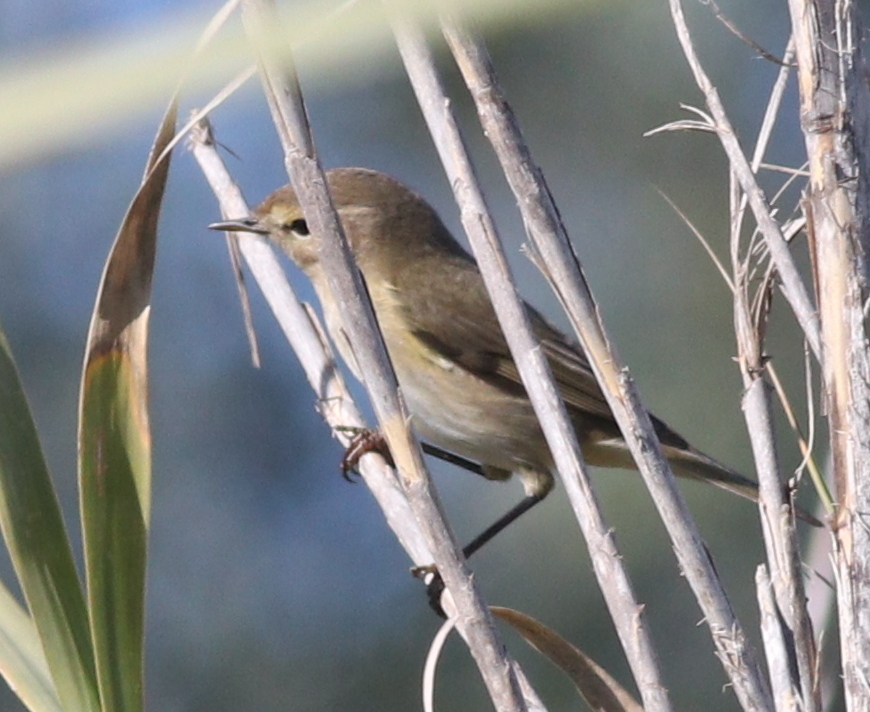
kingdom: Animalia
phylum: Chordata
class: Aves
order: Passeriformes
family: Phylloscopidae
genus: Phylloscopus
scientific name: Phylloscopus collybita
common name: Common chiffchaff
